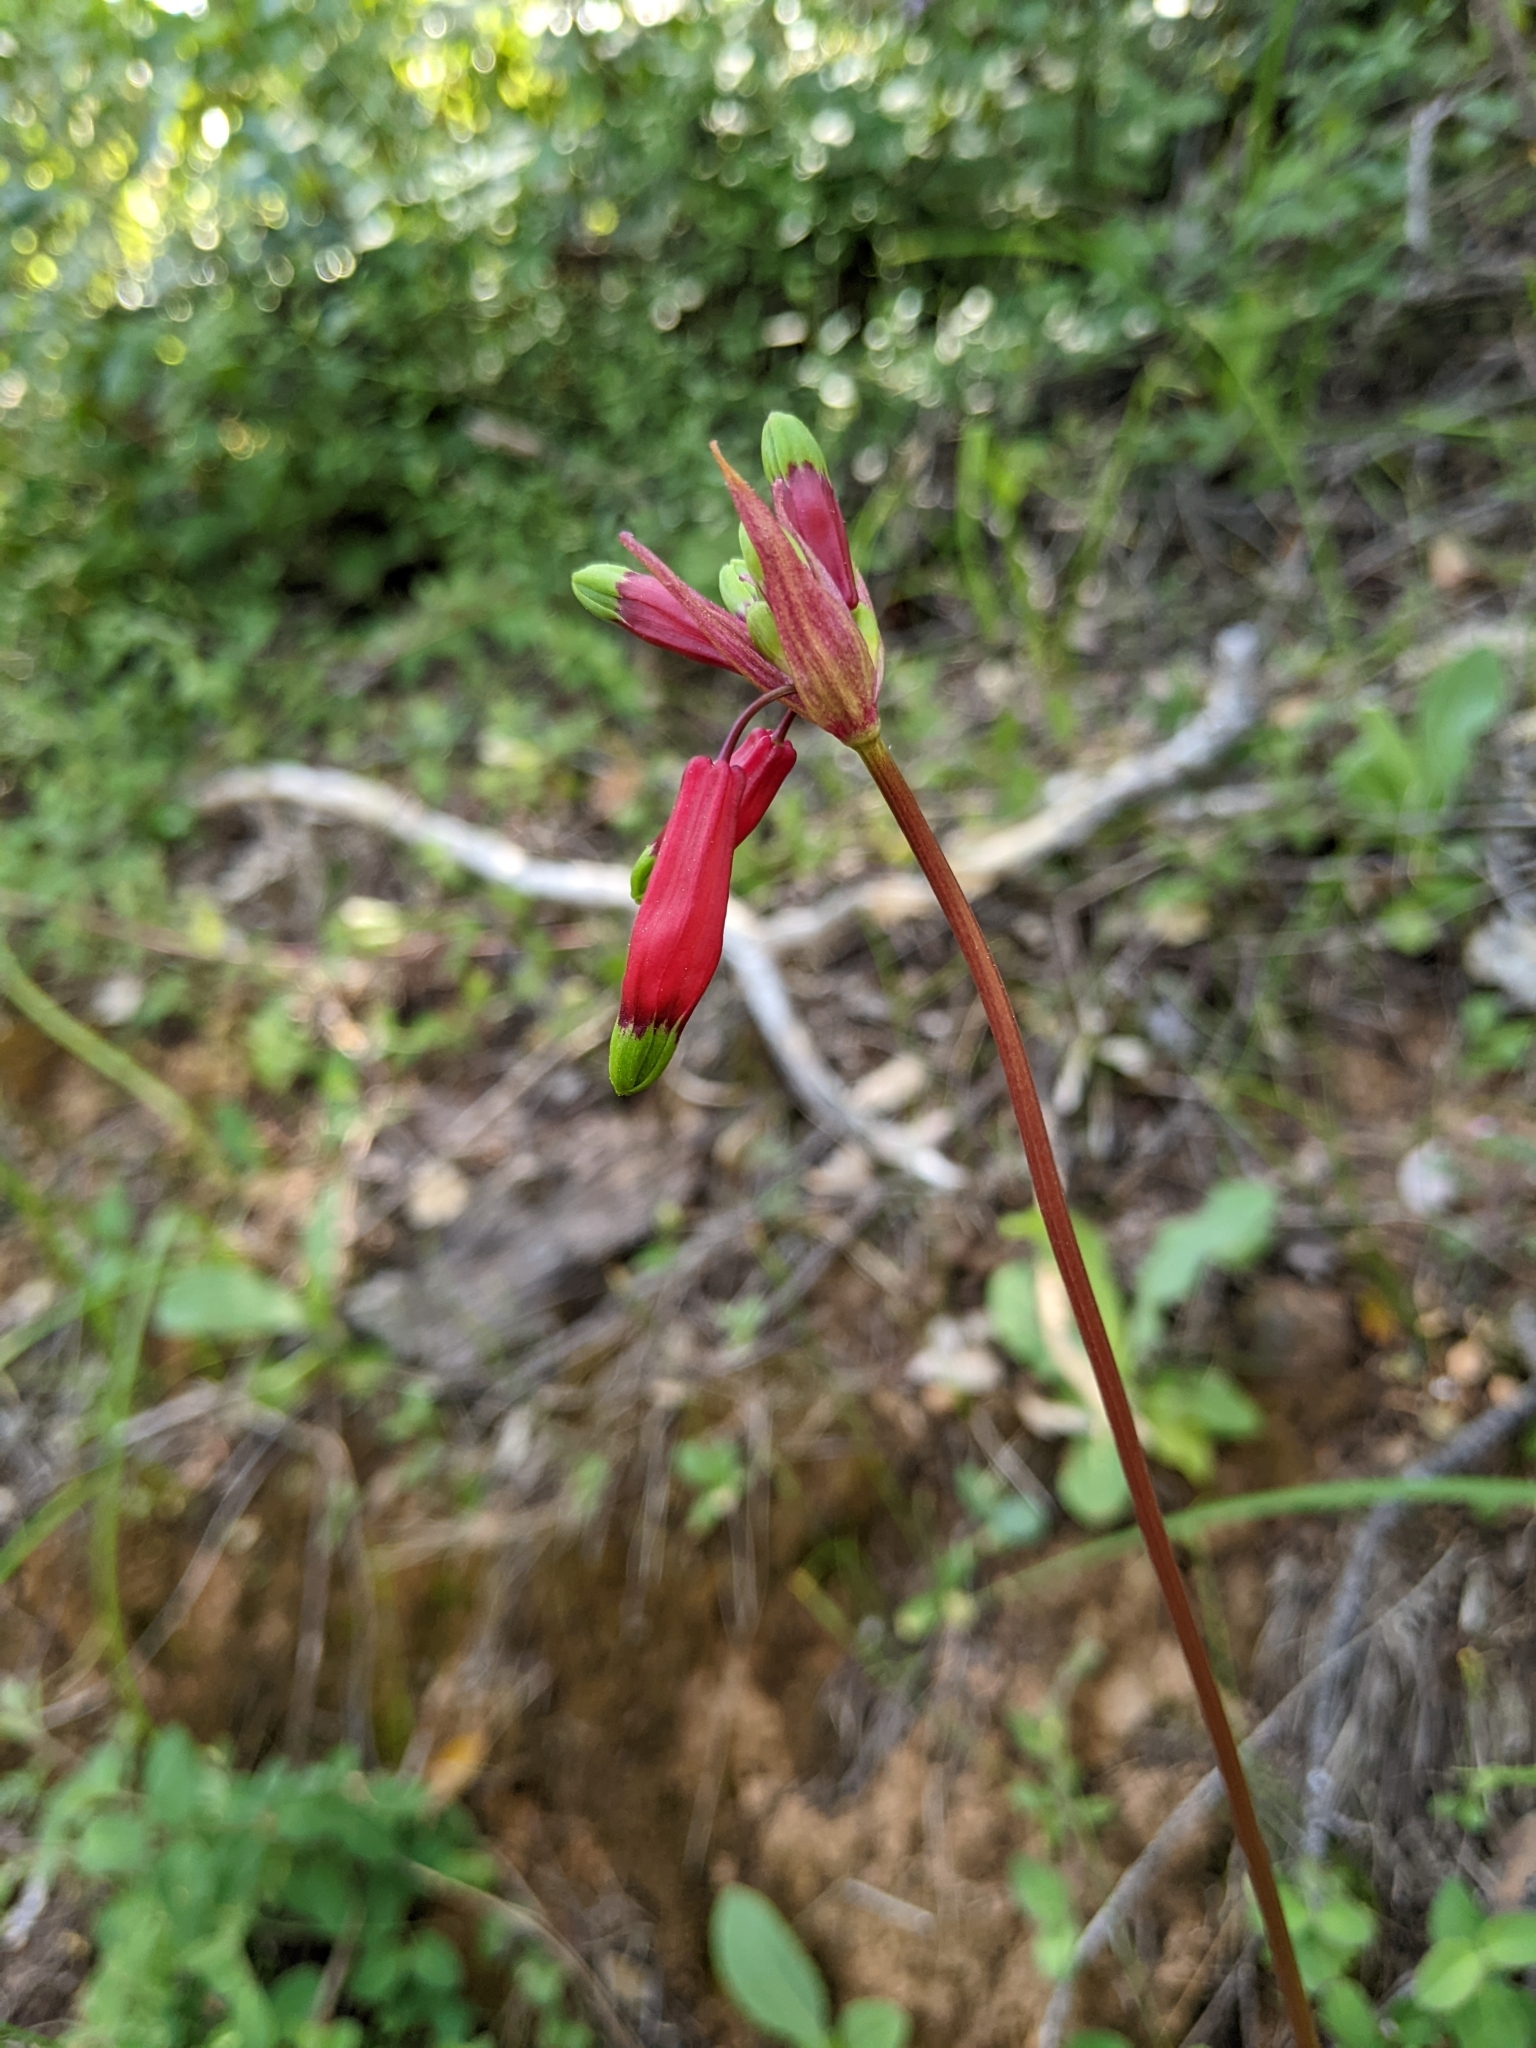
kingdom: Plantae
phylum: Tracheophyta
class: Liliopsida
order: Asparagales
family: Asparagaceae
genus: Dichelostemma
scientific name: Dichelostemma ida-maia
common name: Firecracker-flower
